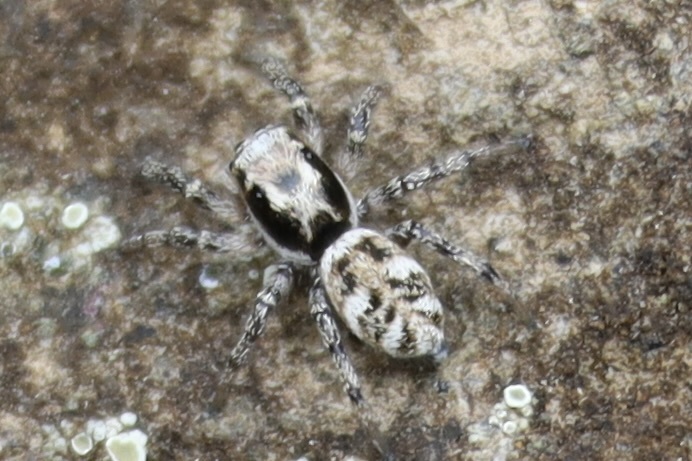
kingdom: Animalia
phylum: Arthropoda
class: Arachnida
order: Araneae
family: Salticidae
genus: Salticus
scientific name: Salticus scenicus
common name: Zebra jumper
